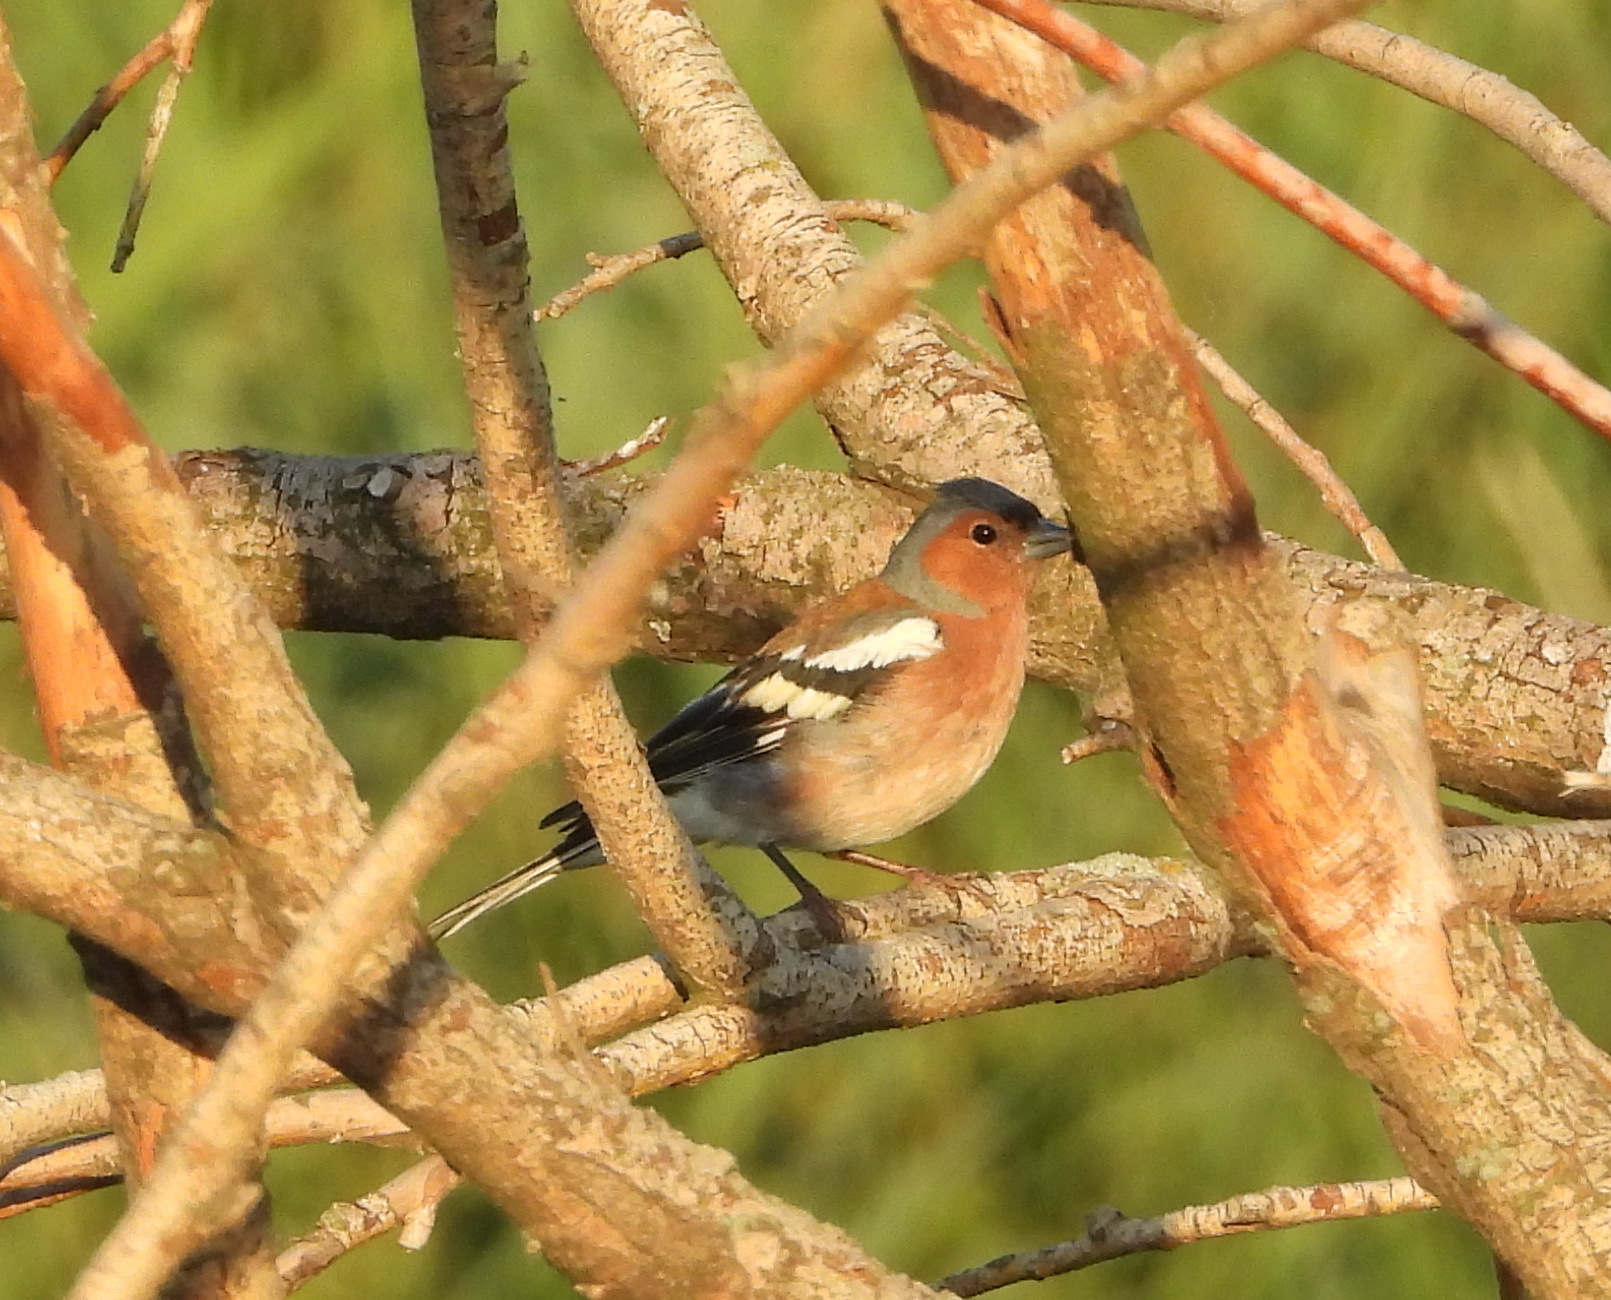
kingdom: Animalia
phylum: Chordata
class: Aves
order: Passeriformes
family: Fringillidae
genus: Fringilla
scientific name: Fringilla coelebs
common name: Common chaffinch
